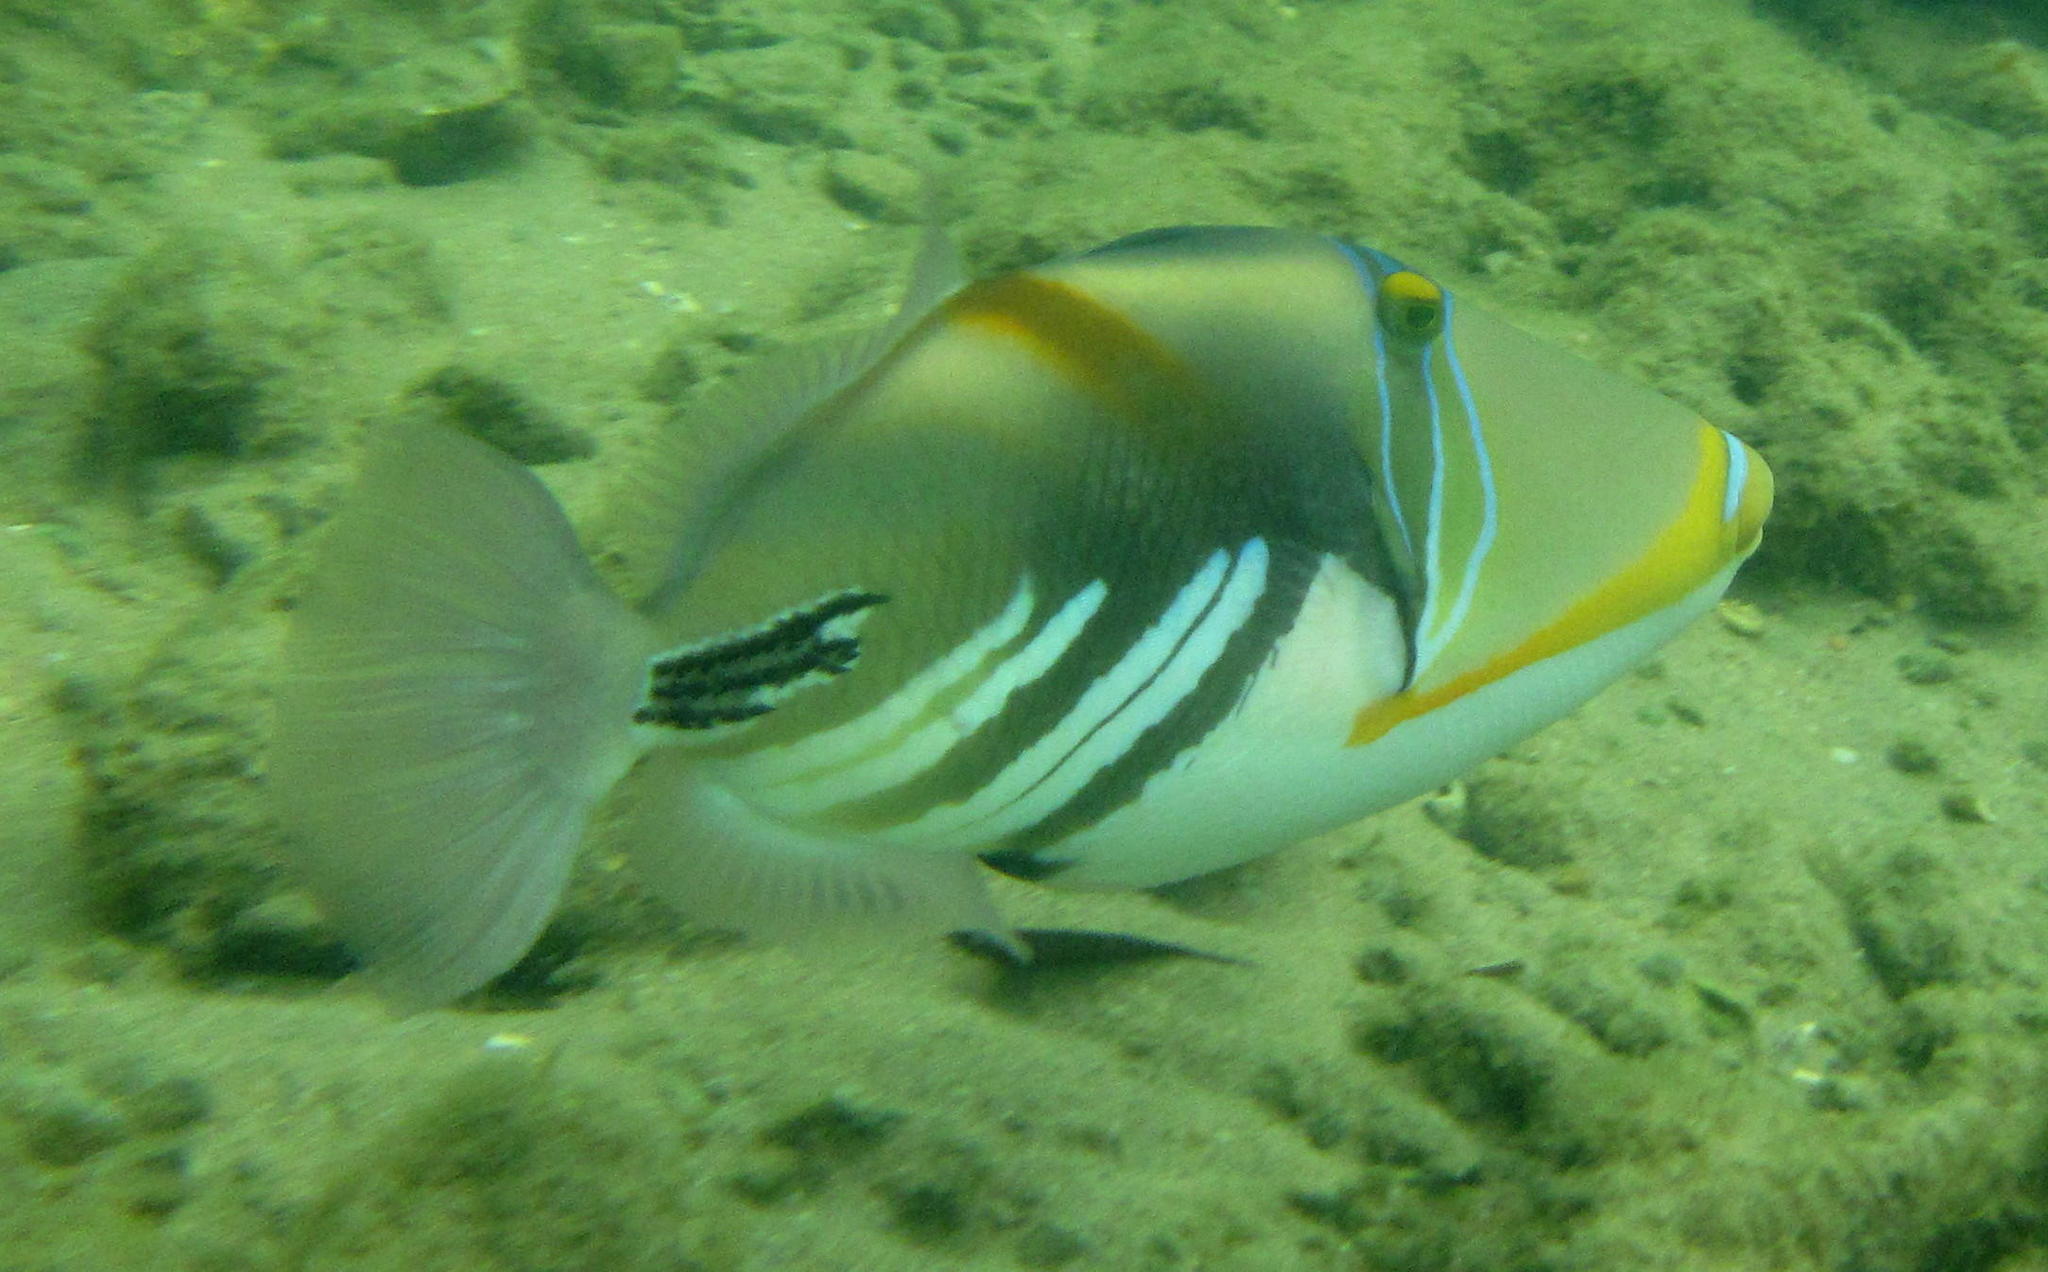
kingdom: Animalia
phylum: Chordata
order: Tetraodontiformes
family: Balistidae
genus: Rhinecanthus
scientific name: Rhinecanthus aculeatus
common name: White-banded triggerfish
